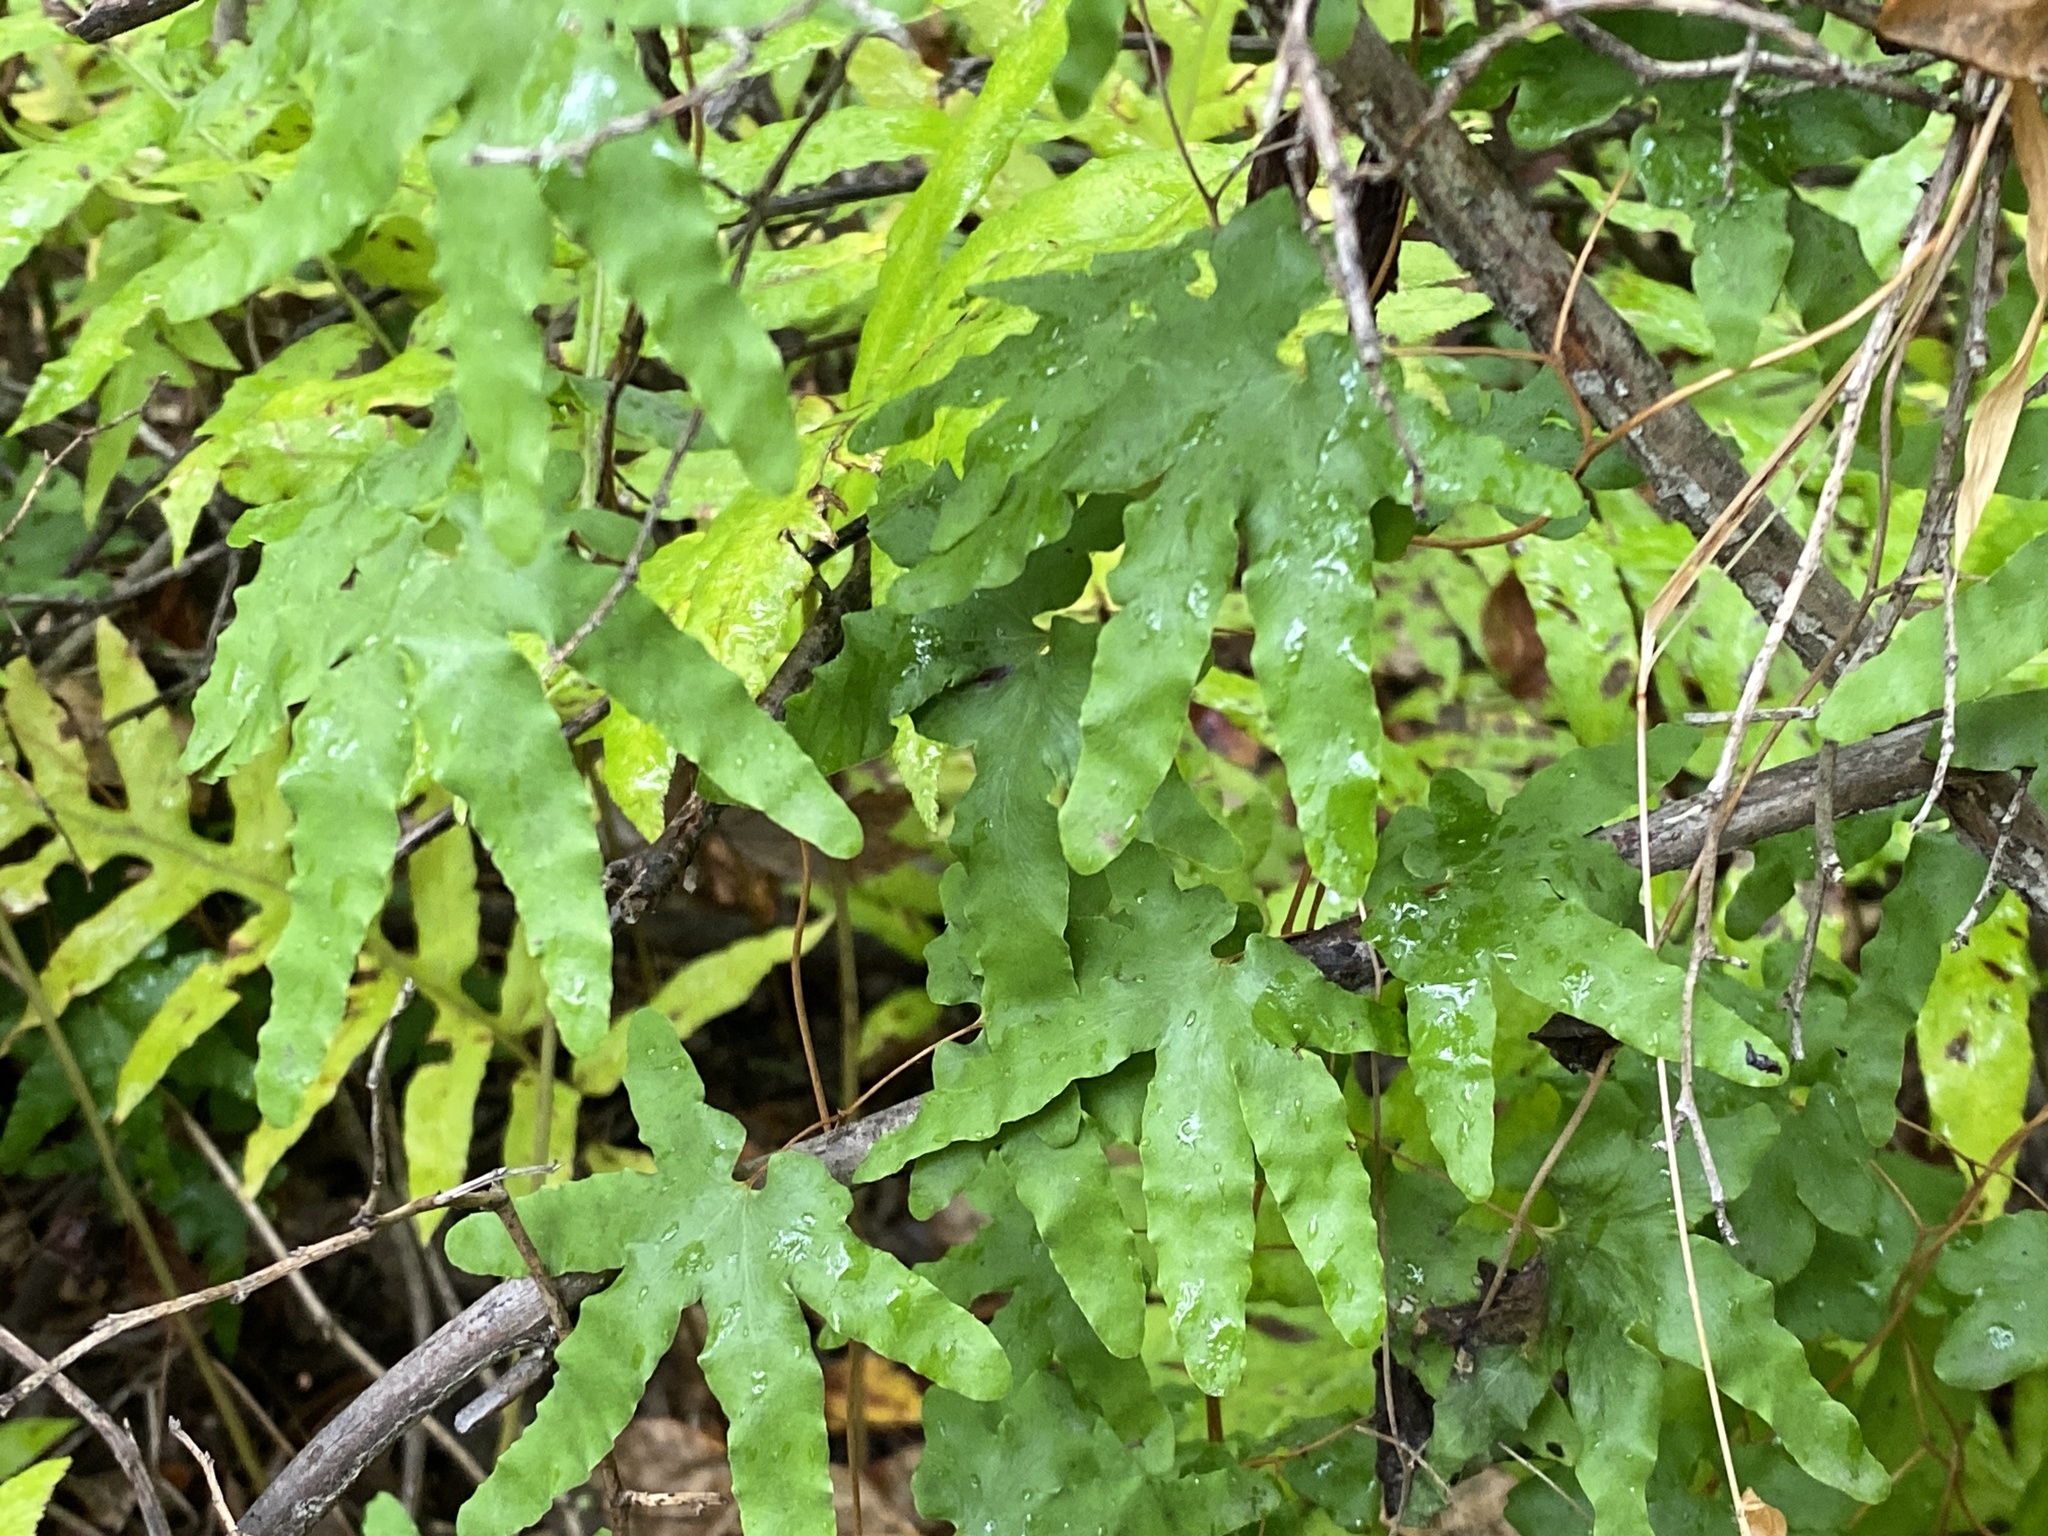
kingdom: Plantae
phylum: Tracheophyta
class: Polypodiopsida
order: Schizaeales
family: Lygodiaceae
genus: Lygodium
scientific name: Lygodium palmatum
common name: American climbing fern
